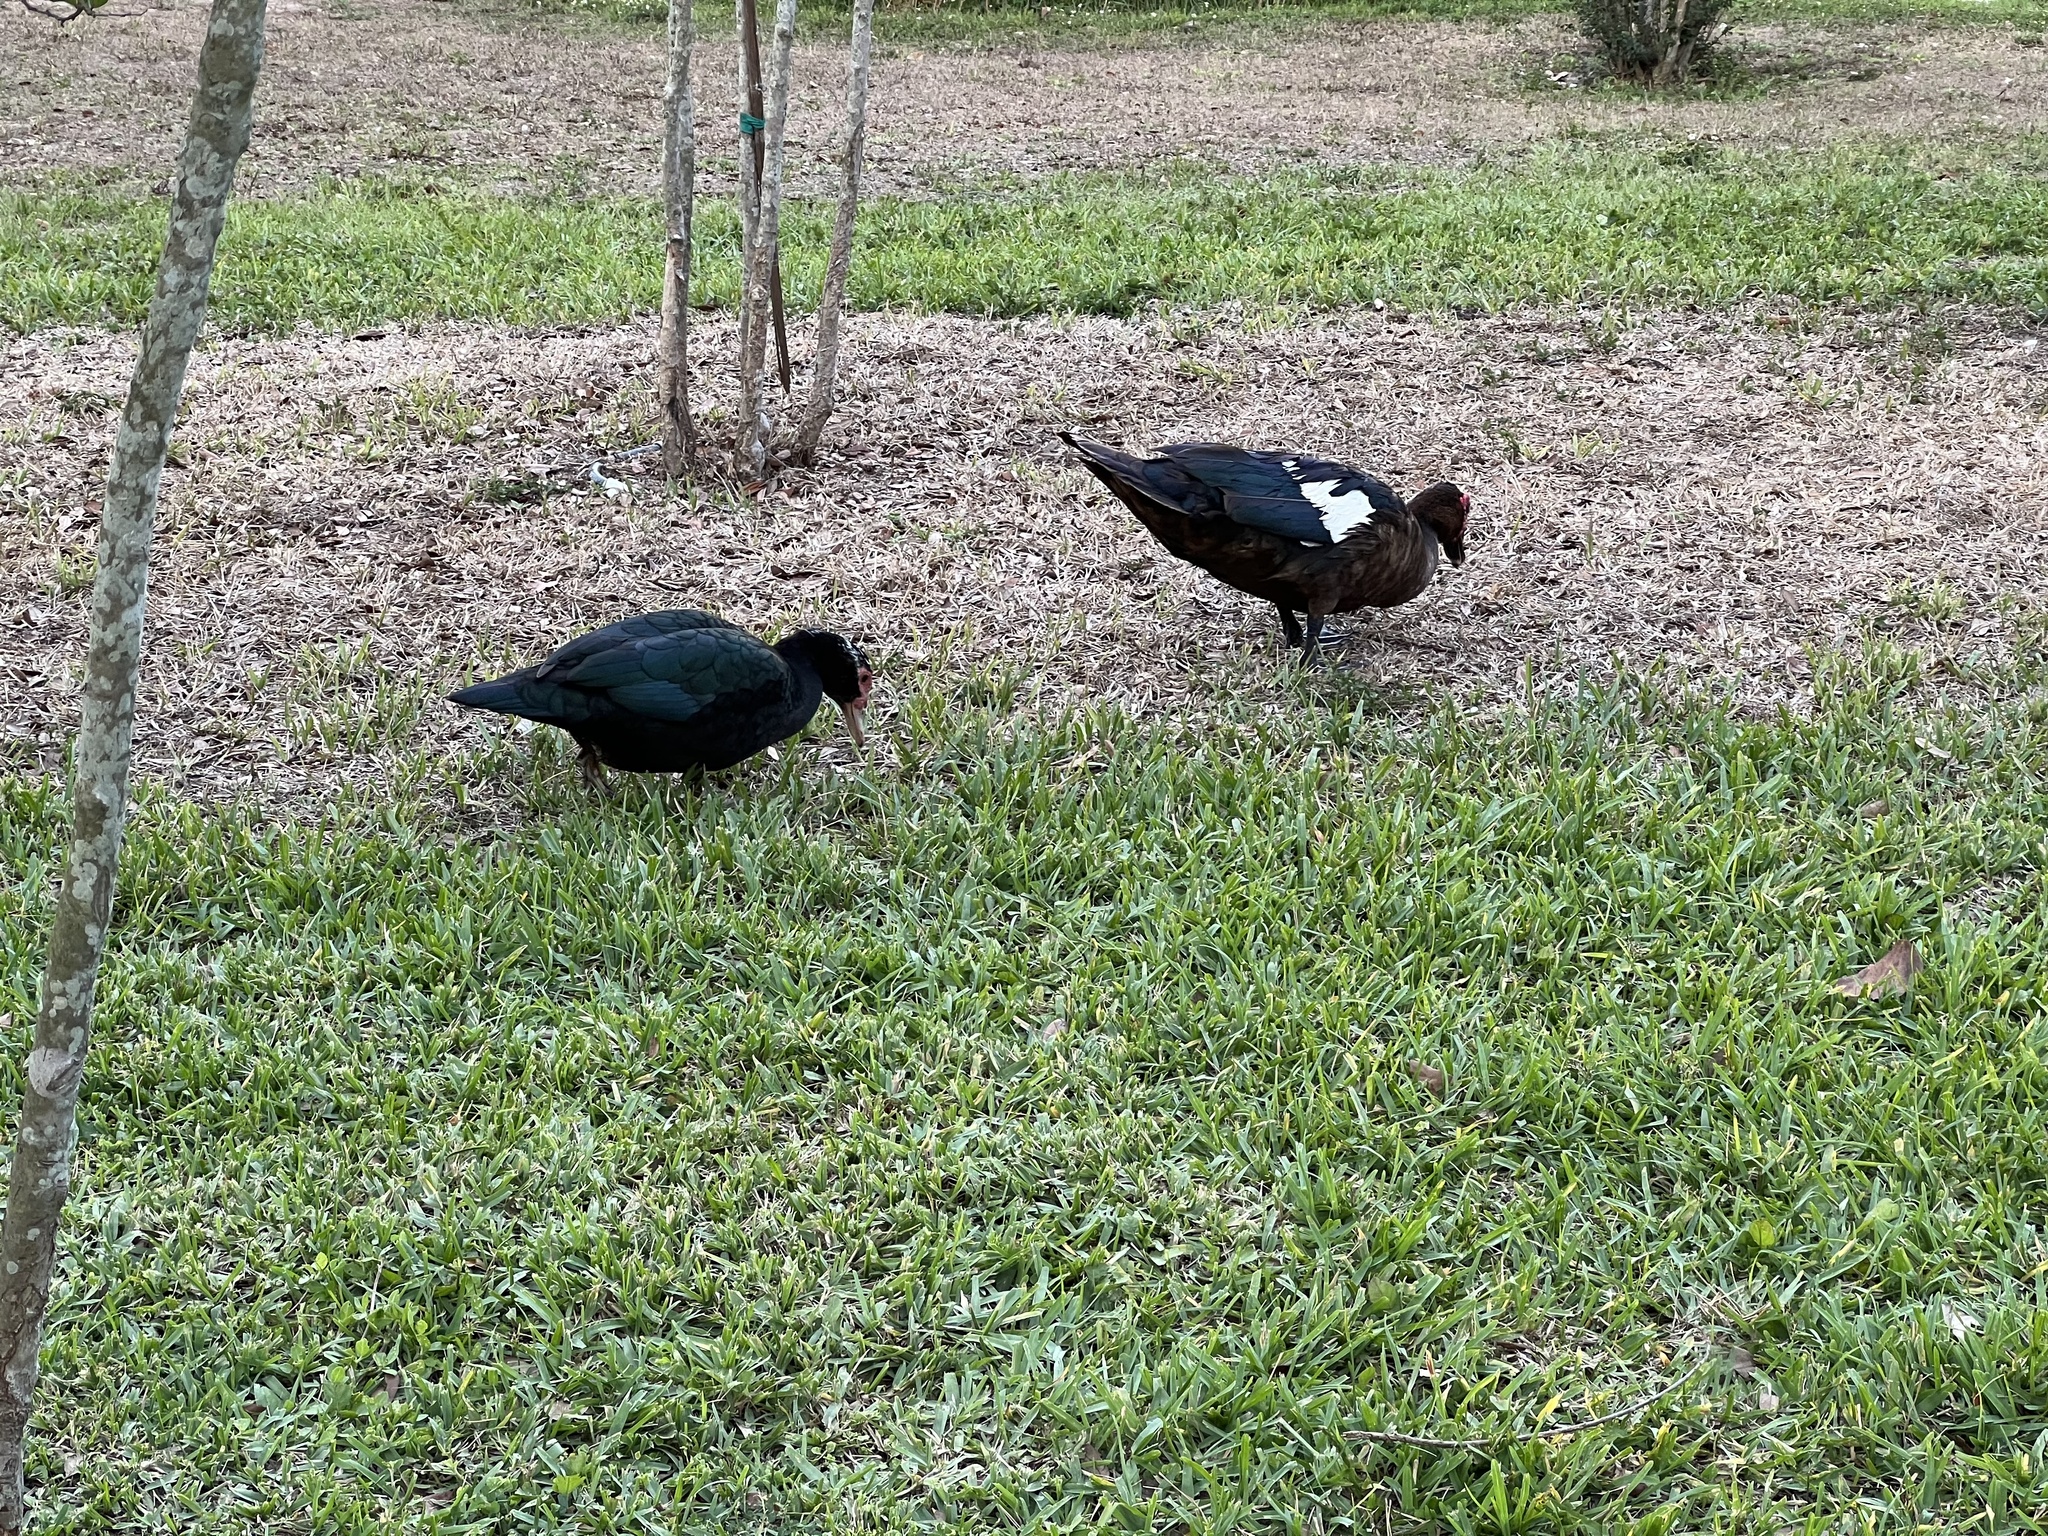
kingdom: Animalia
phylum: Chordata
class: Aves
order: Anseriformes
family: Anatidae
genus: Cairina
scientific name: Cairina moschata
